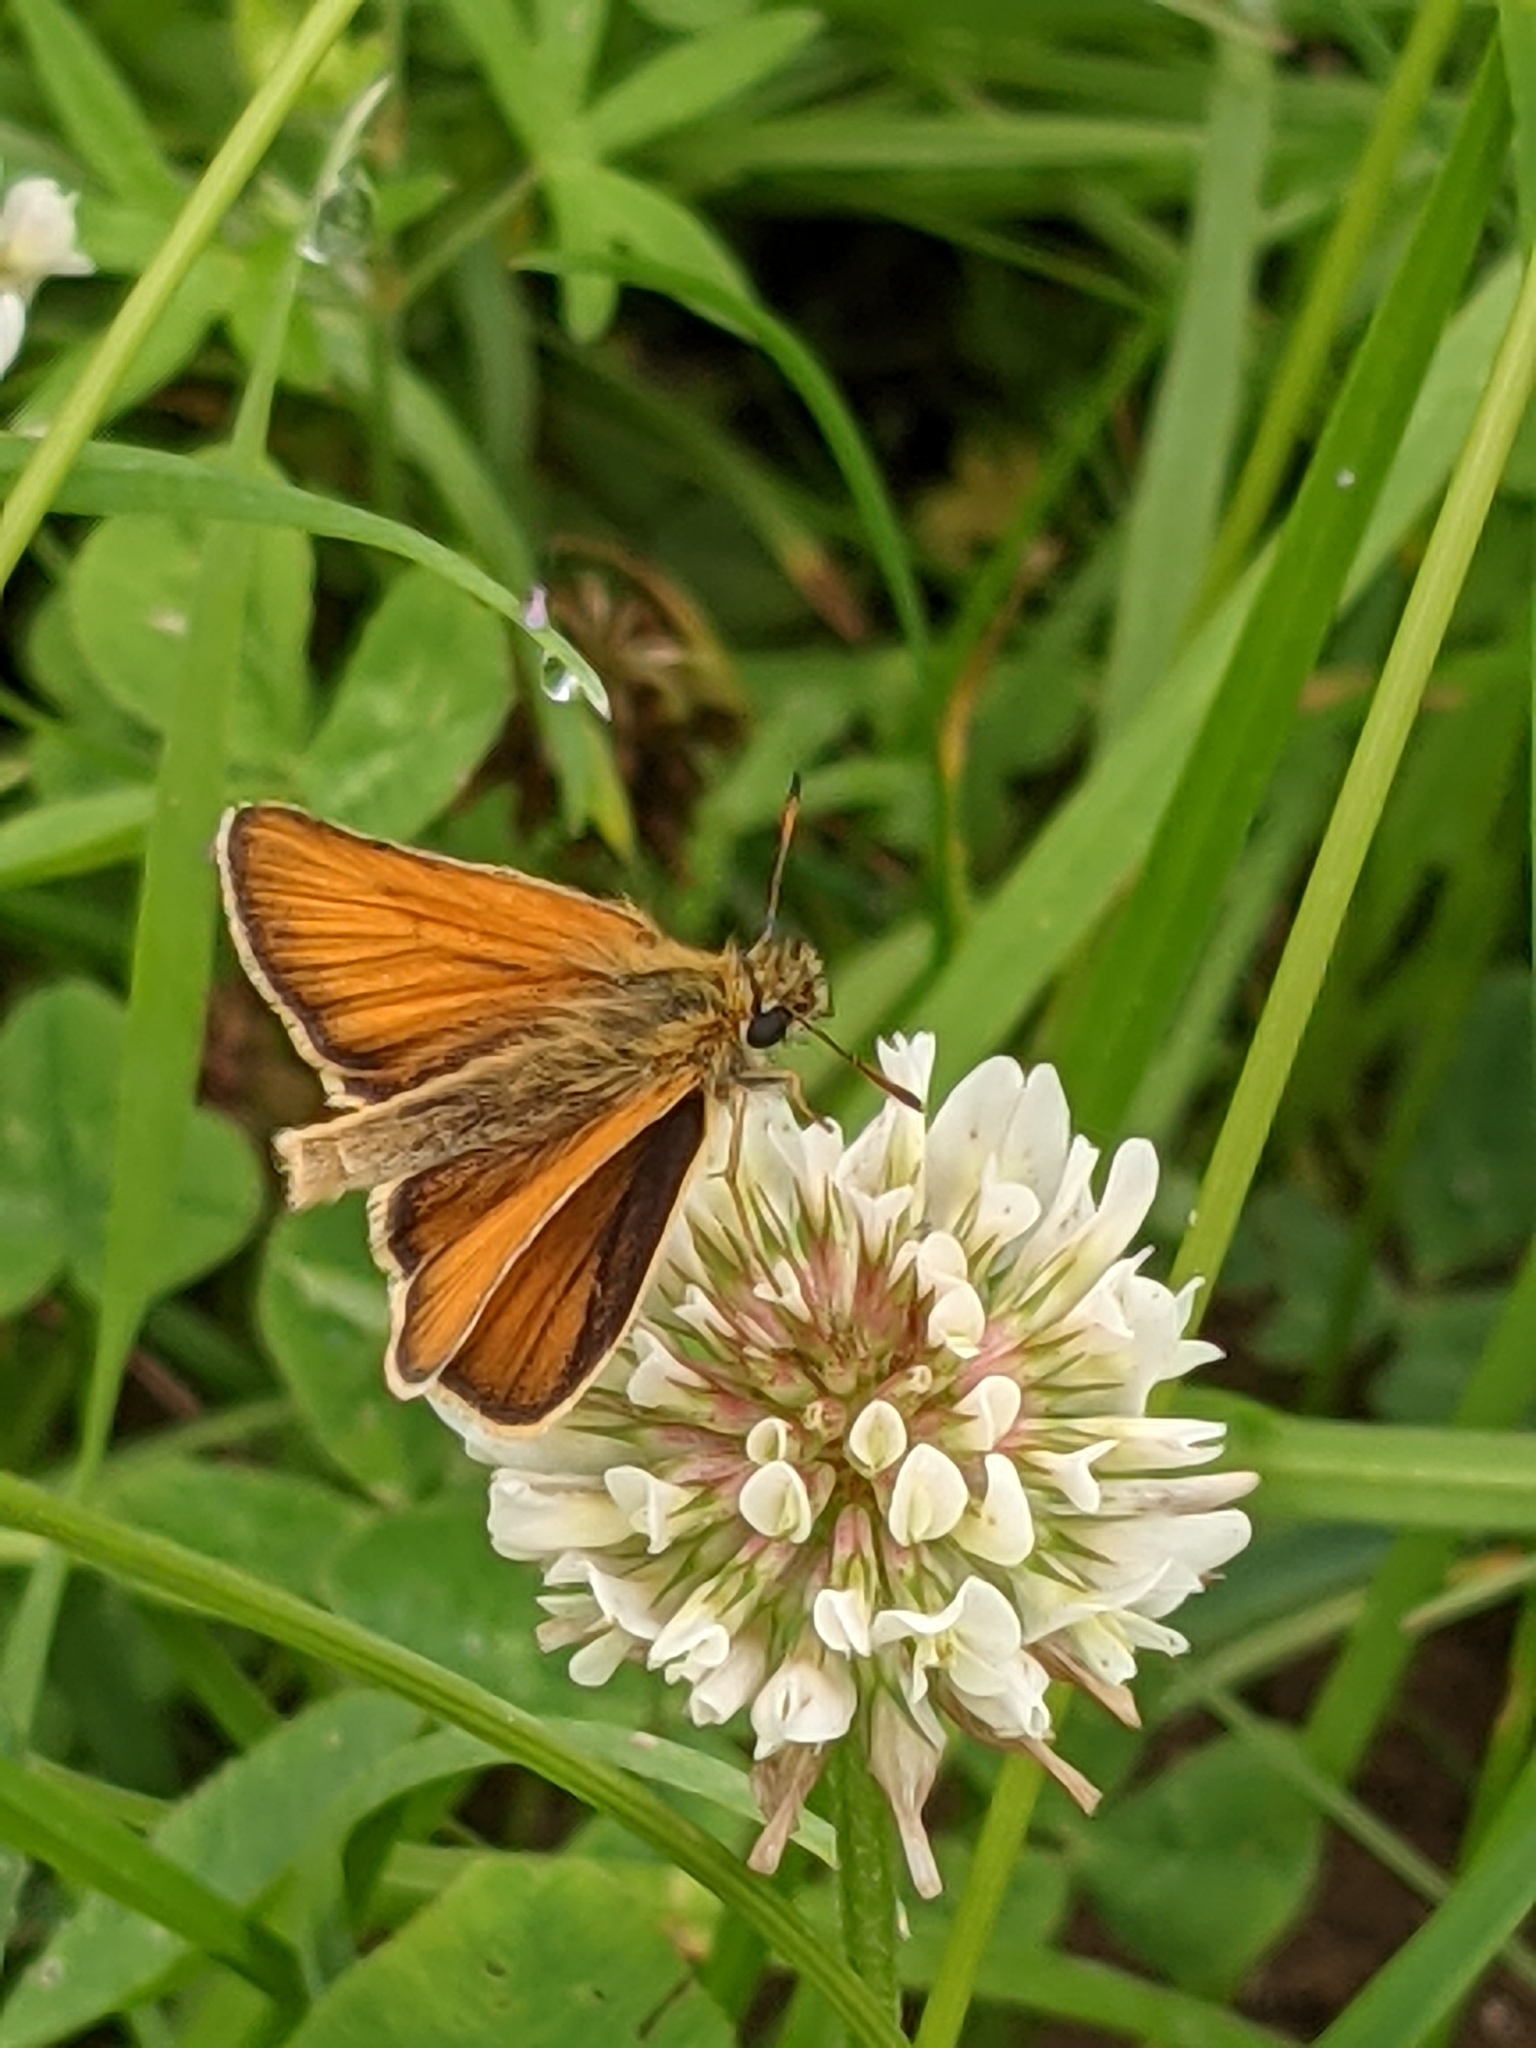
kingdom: Animalia
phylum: Arthropoda
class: Insecta
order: Lepidoptera
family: Hesperiidae
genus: Thymelicus
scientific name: Thymelicus lineola
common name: Essex skipper
